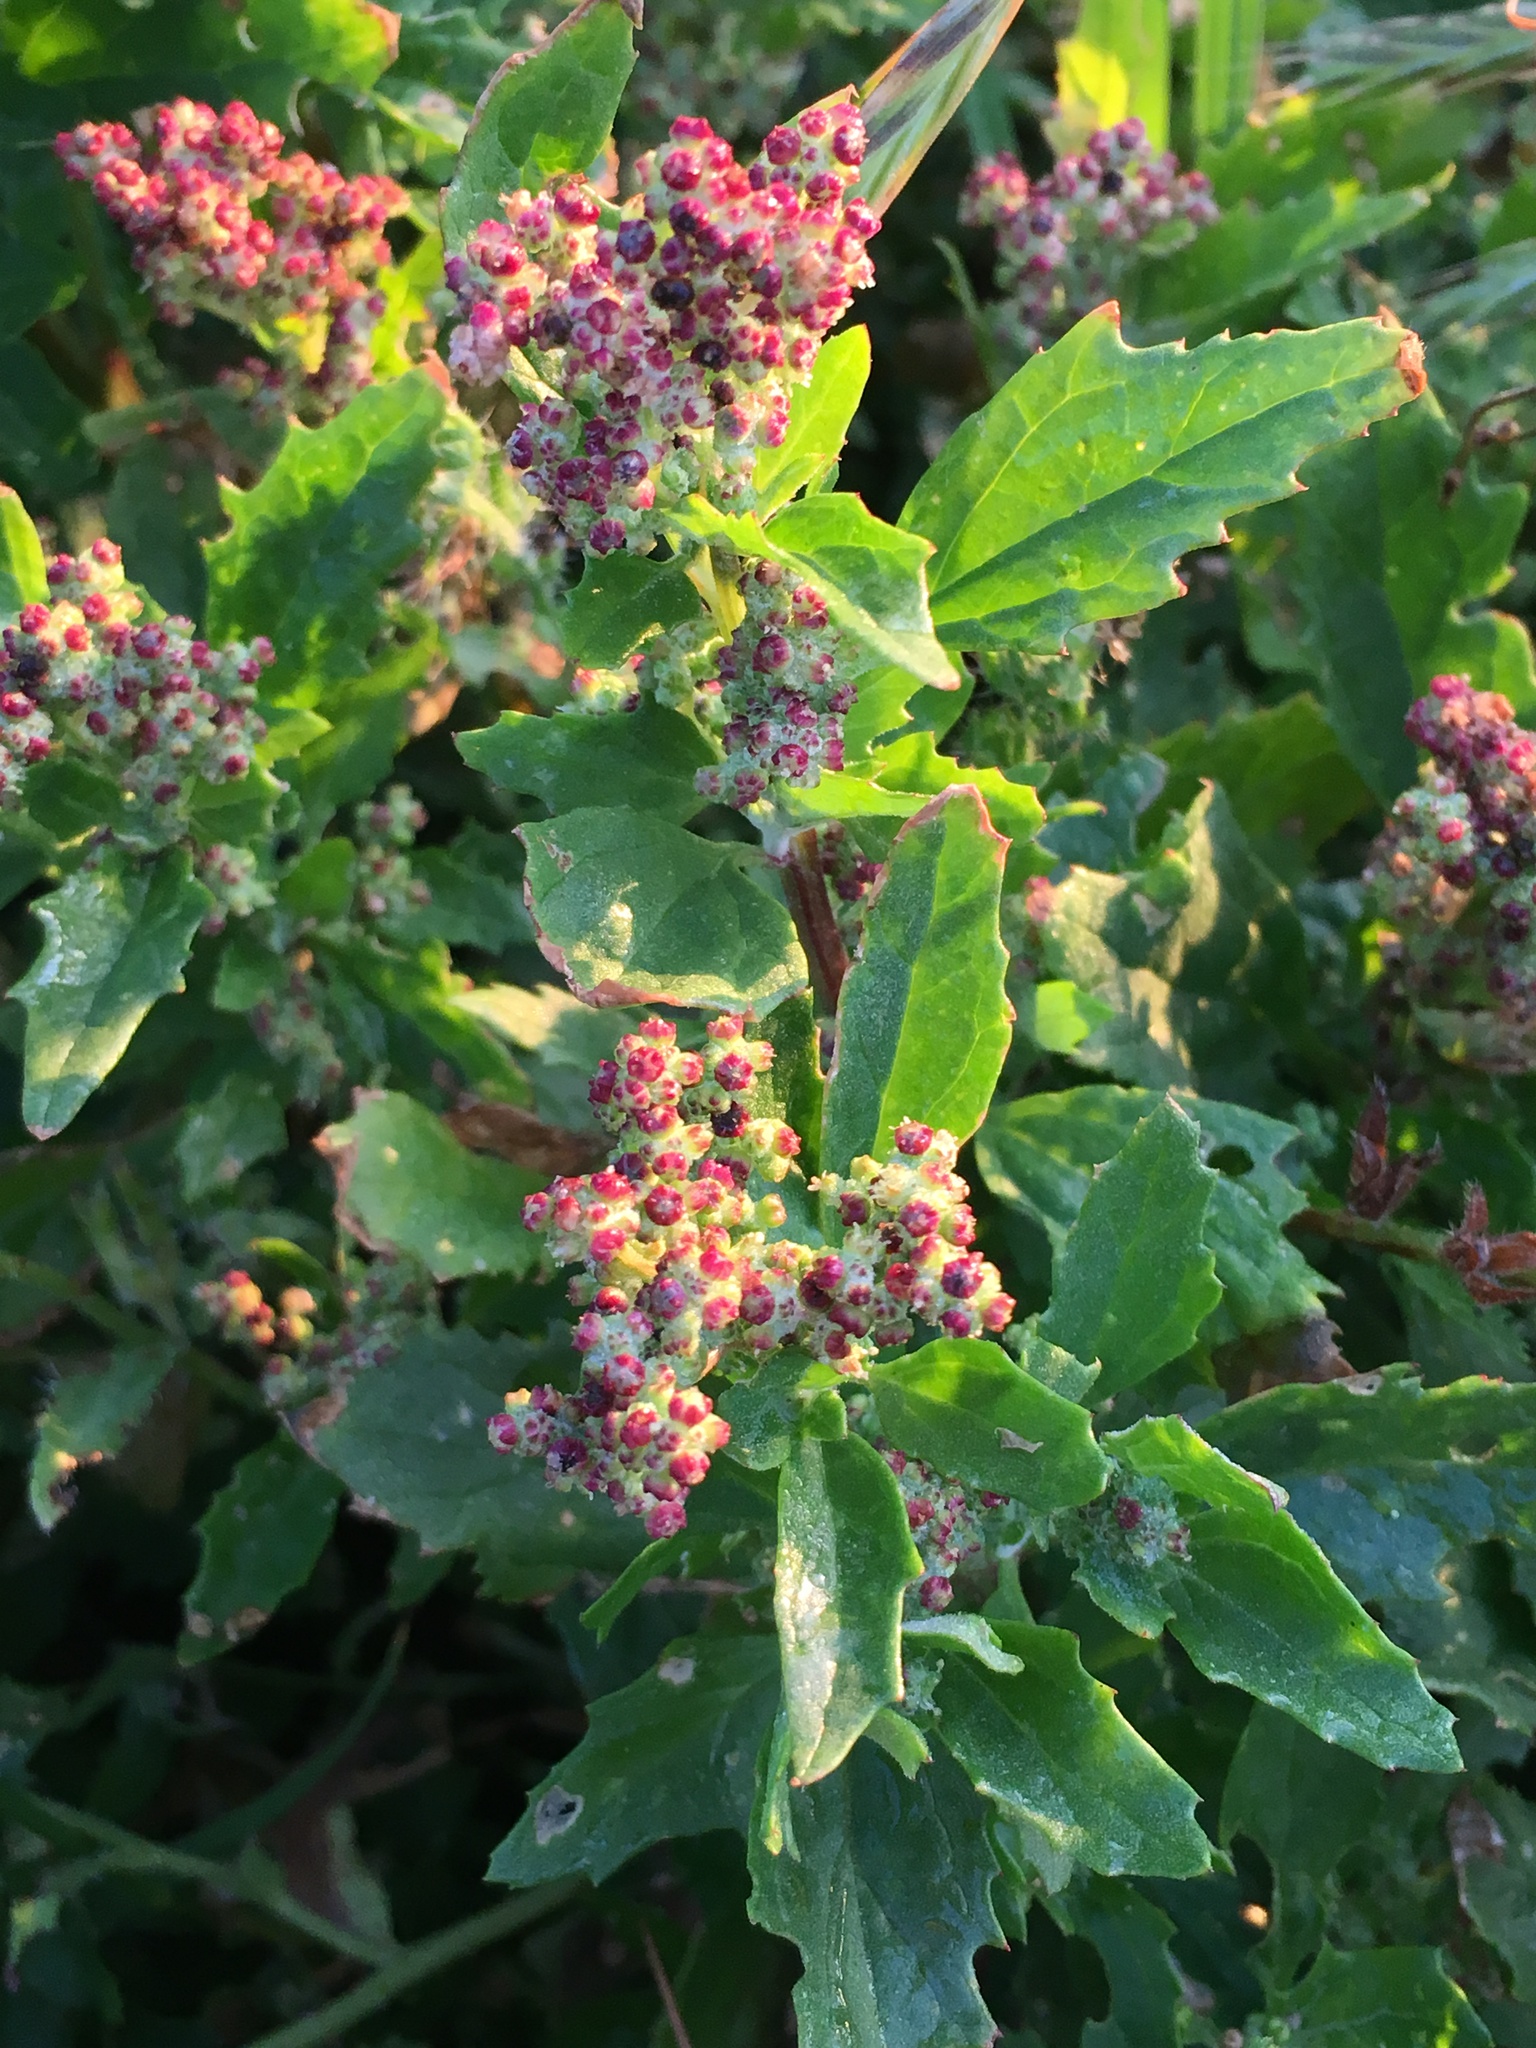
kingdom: Plantae
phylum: Tracheophyta
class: Magnoliopsida
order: Caryophyllales
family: Amaranthaceae
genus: Chenopodiastrum
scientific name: Chenopodiastrum murale
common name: Sowbane
